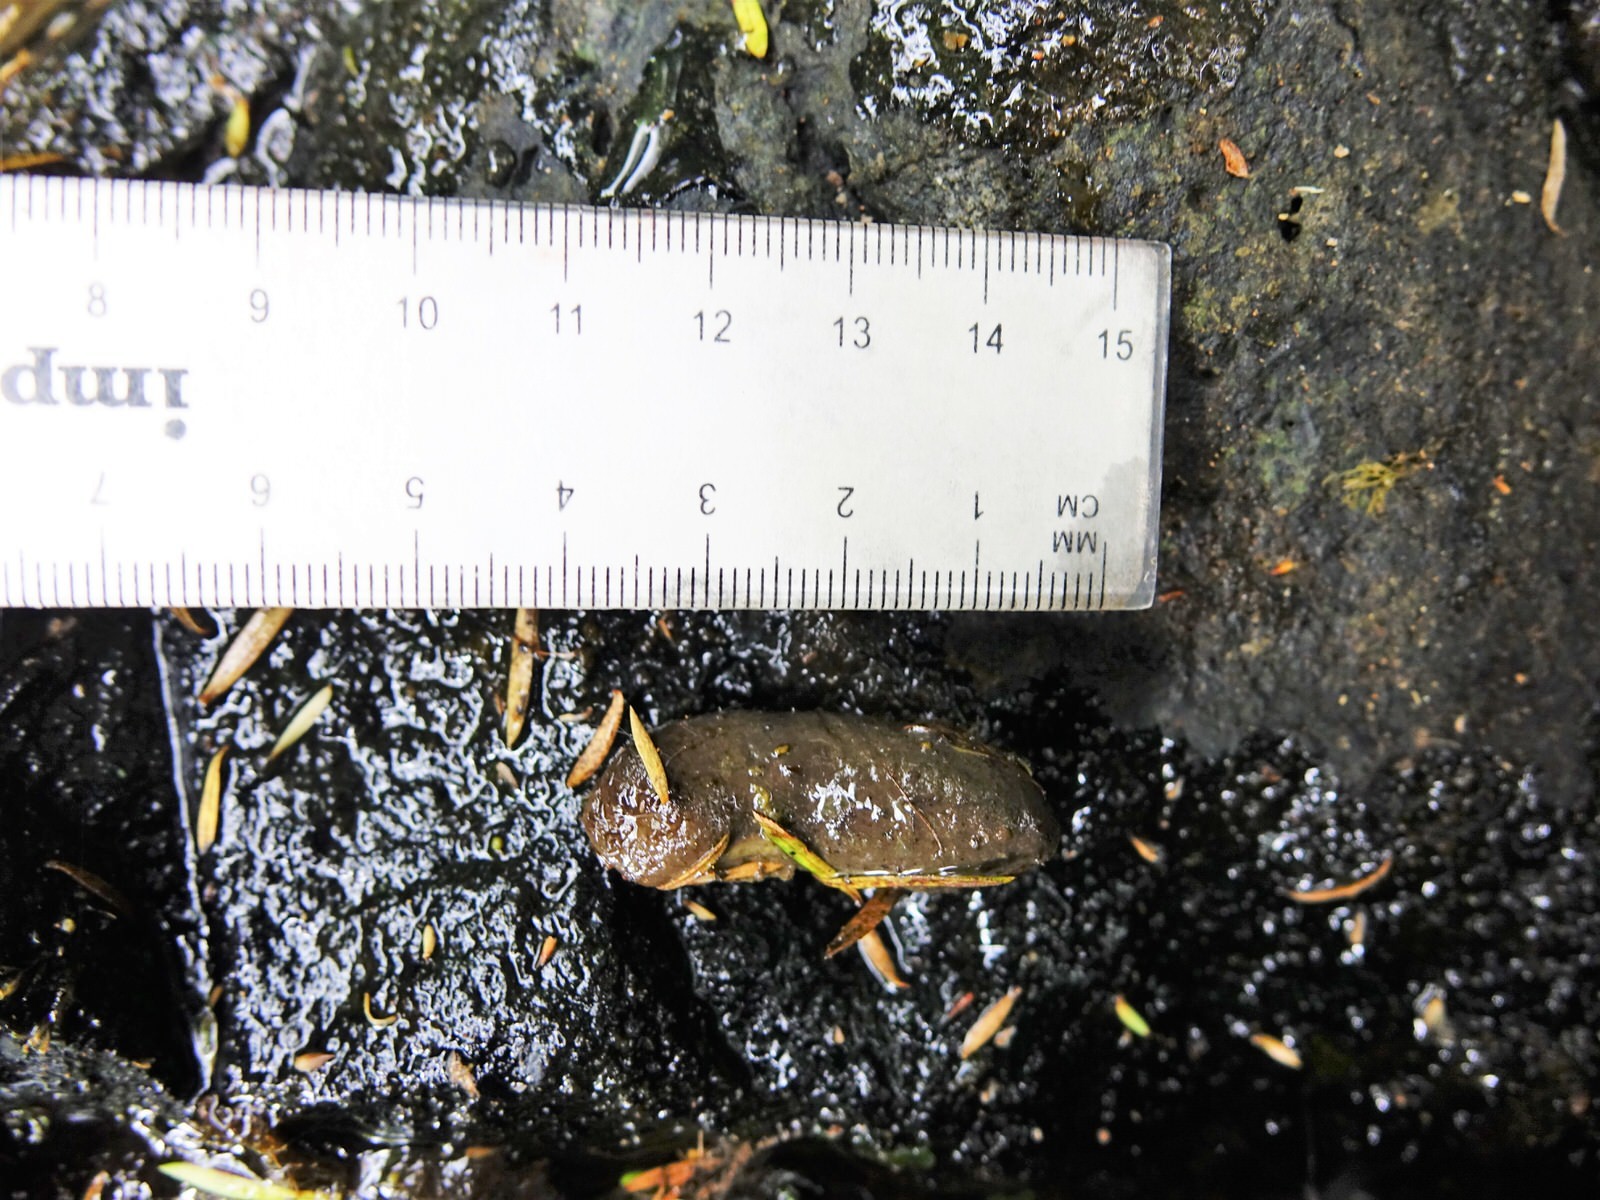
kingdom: Animalia
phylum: Chordata
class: Mammalia
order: Diprotodontia
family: Phalangeridae
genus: Trichosurus
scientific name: Trichosurus vulpecula
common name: Common brushtail
